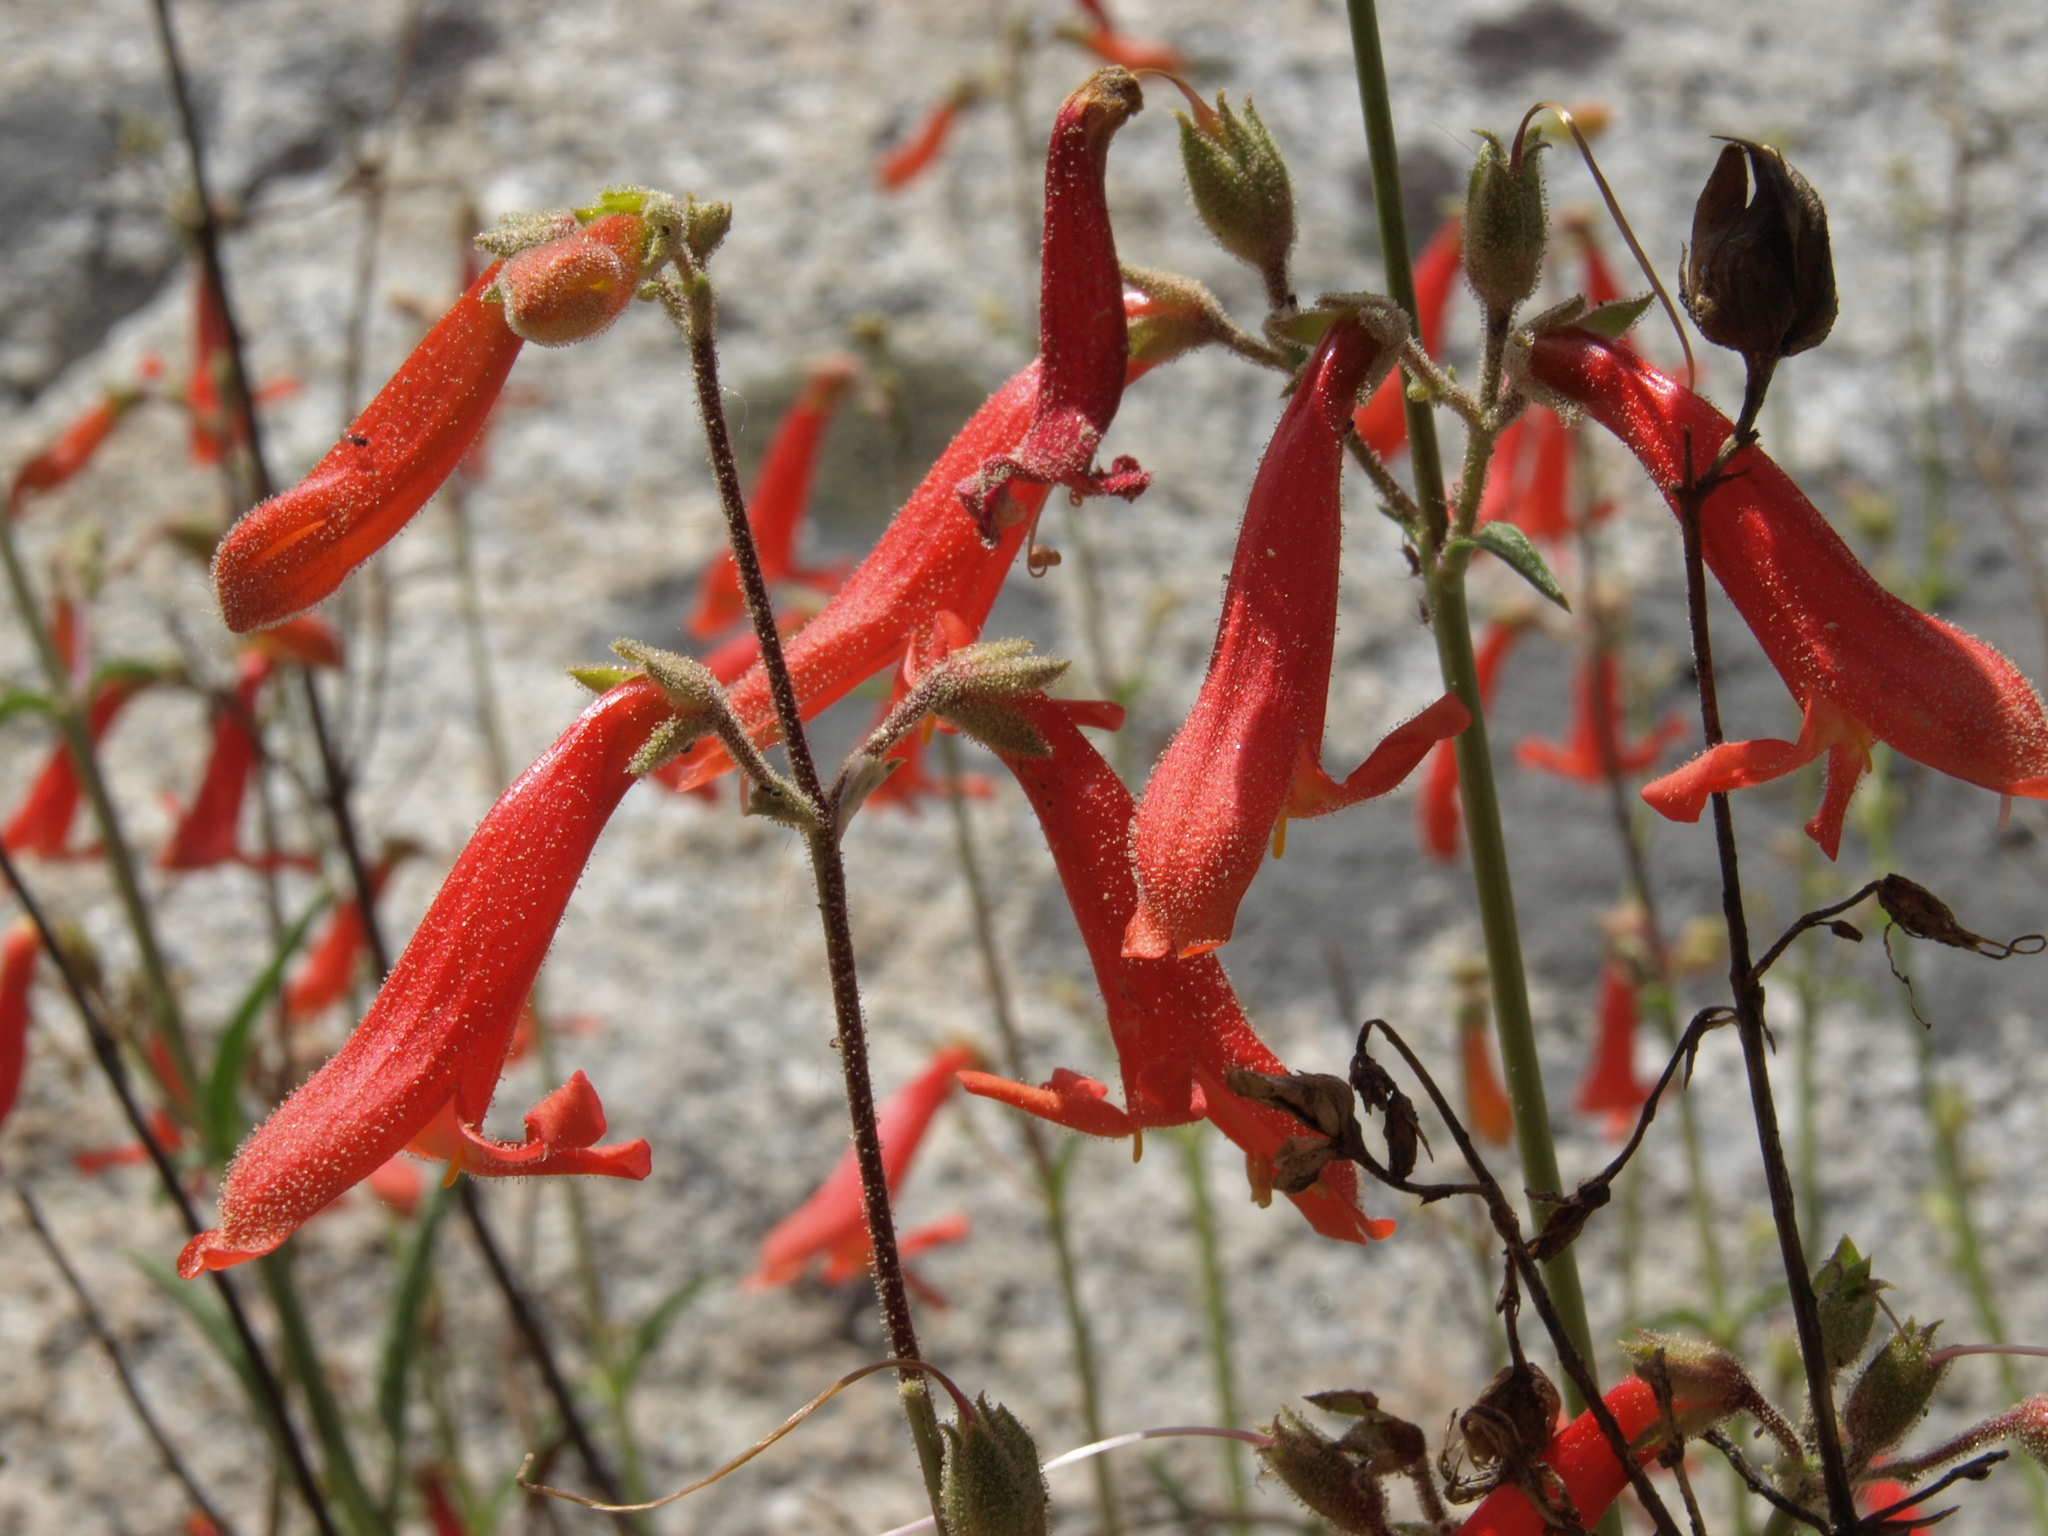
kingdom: Plantae
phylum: Tracheophyta
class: Magnoliopsida
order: Lamiales
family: Plantaginaceae
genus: Penstemon
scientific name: Penstemon rostriflorus
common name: Bridges's penstemon
